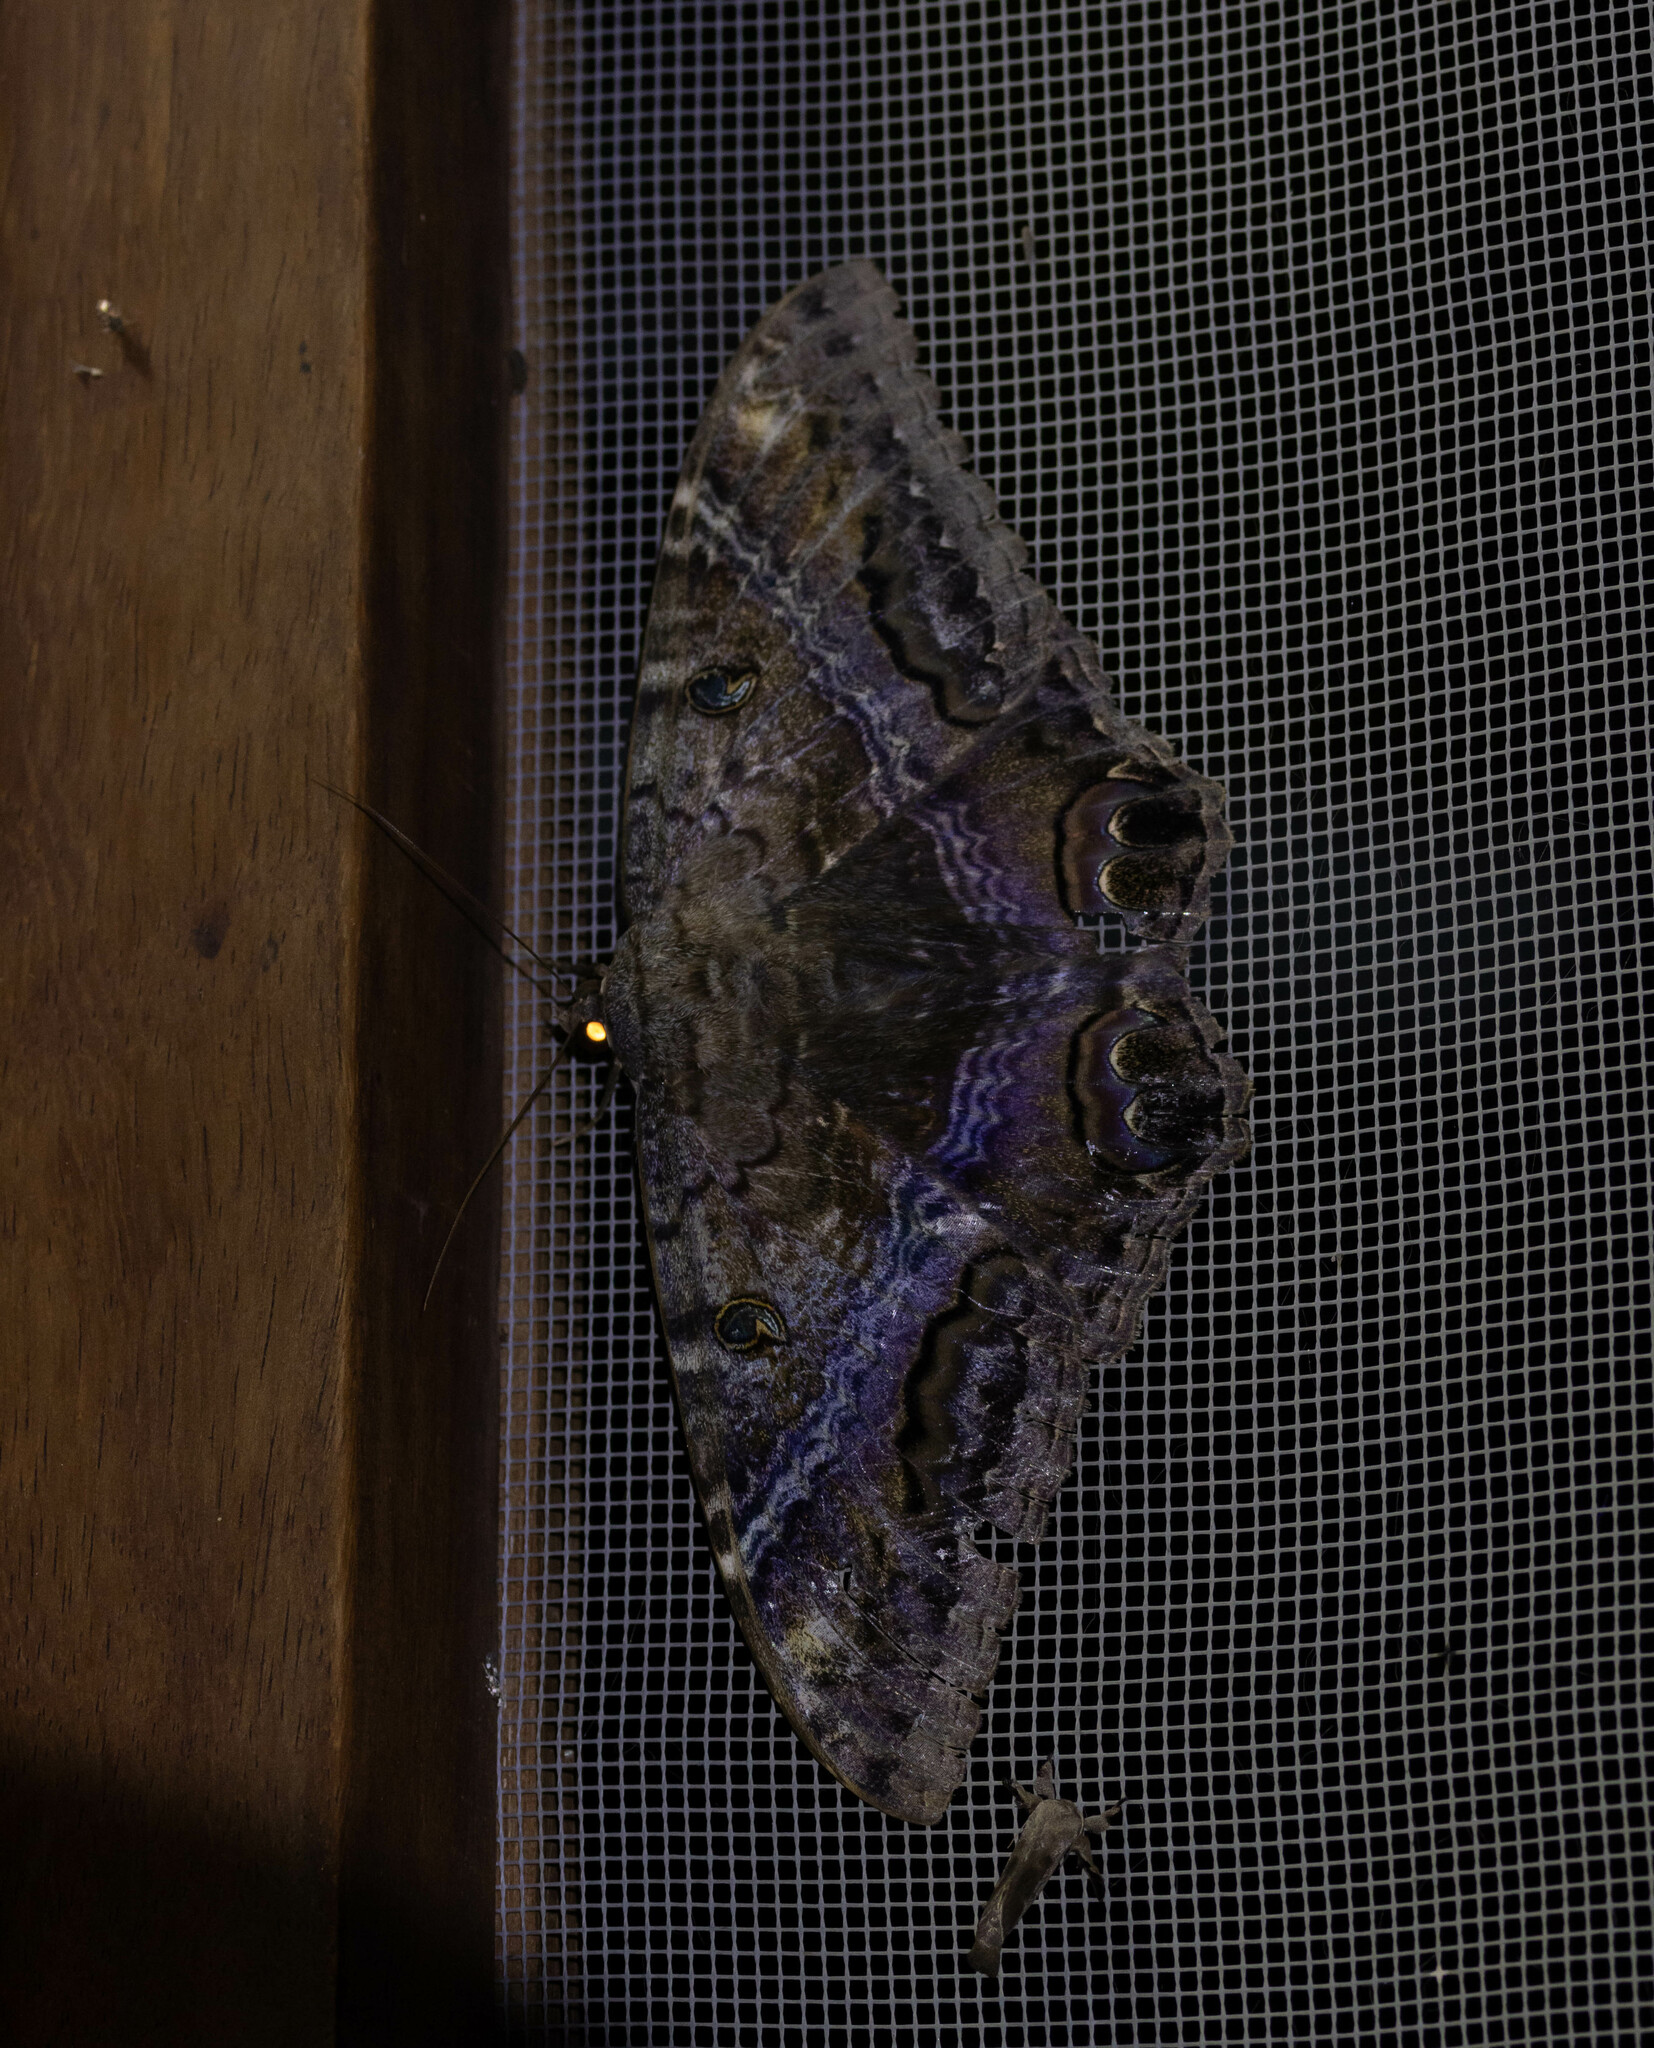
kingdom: Animalia
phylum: Arthropoda
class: Insecta
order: Lepidoptera
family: Erebidae
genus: Ascalapha
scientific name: Ascalapha odorata
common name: Black witch
